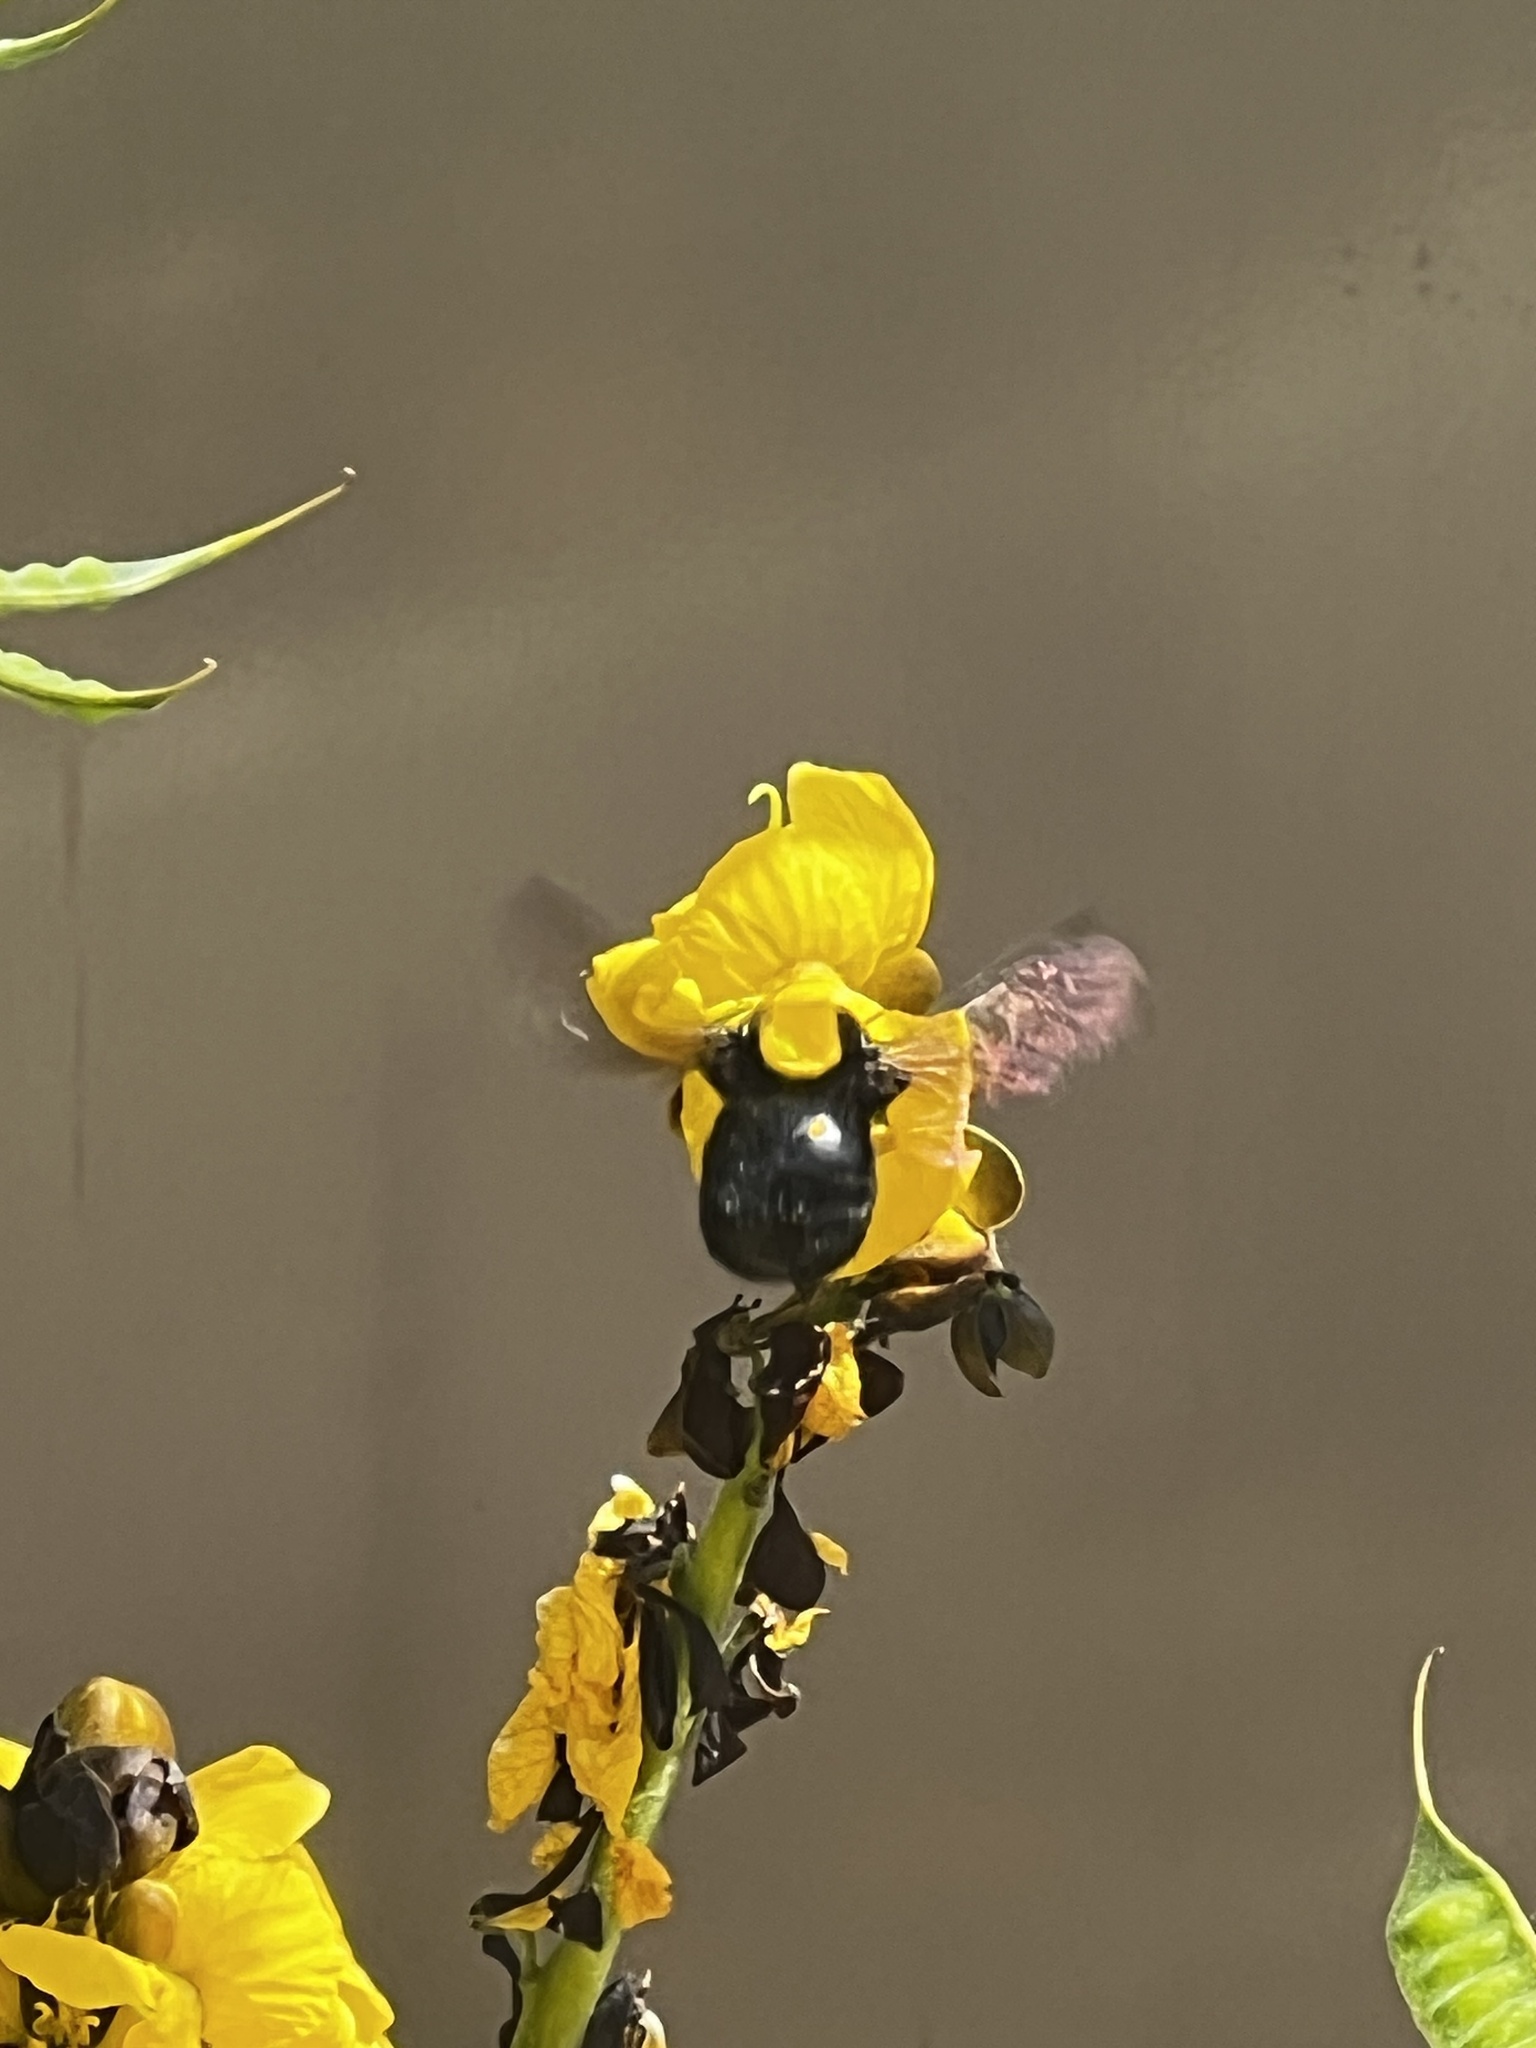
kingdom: Animalia
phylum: Arthropoda
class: Insecta
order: Hymenoptera
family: Apidae
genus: Xylocopa
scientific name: Xylocopa sonorina
